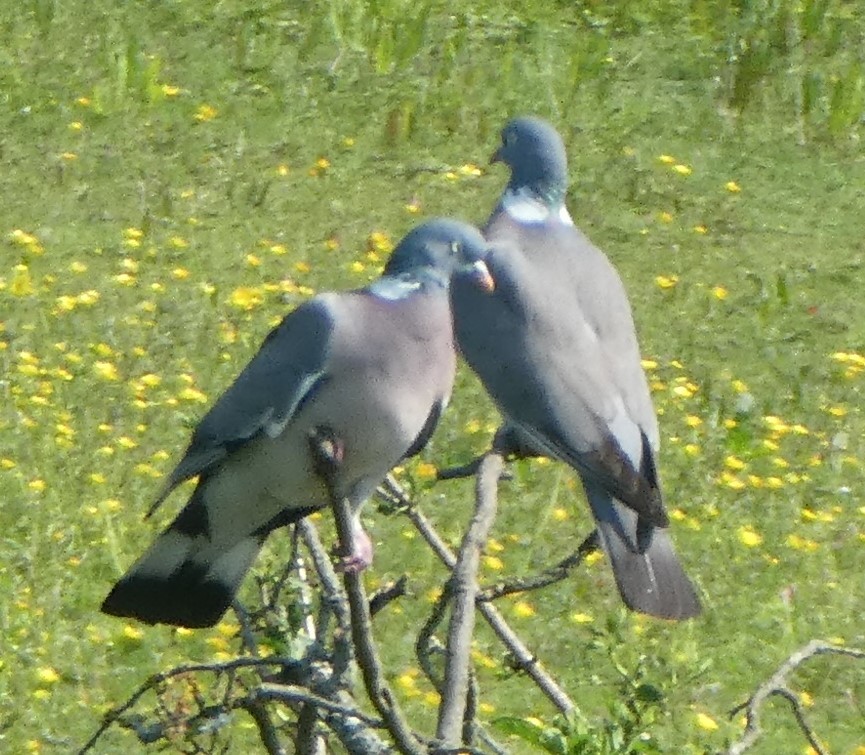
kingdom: Animalia
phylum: Chordata
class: Aves
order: Columbiformes
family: Columbidae
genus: Columba
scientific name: Columba palumbus
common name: Common wood pigeon
